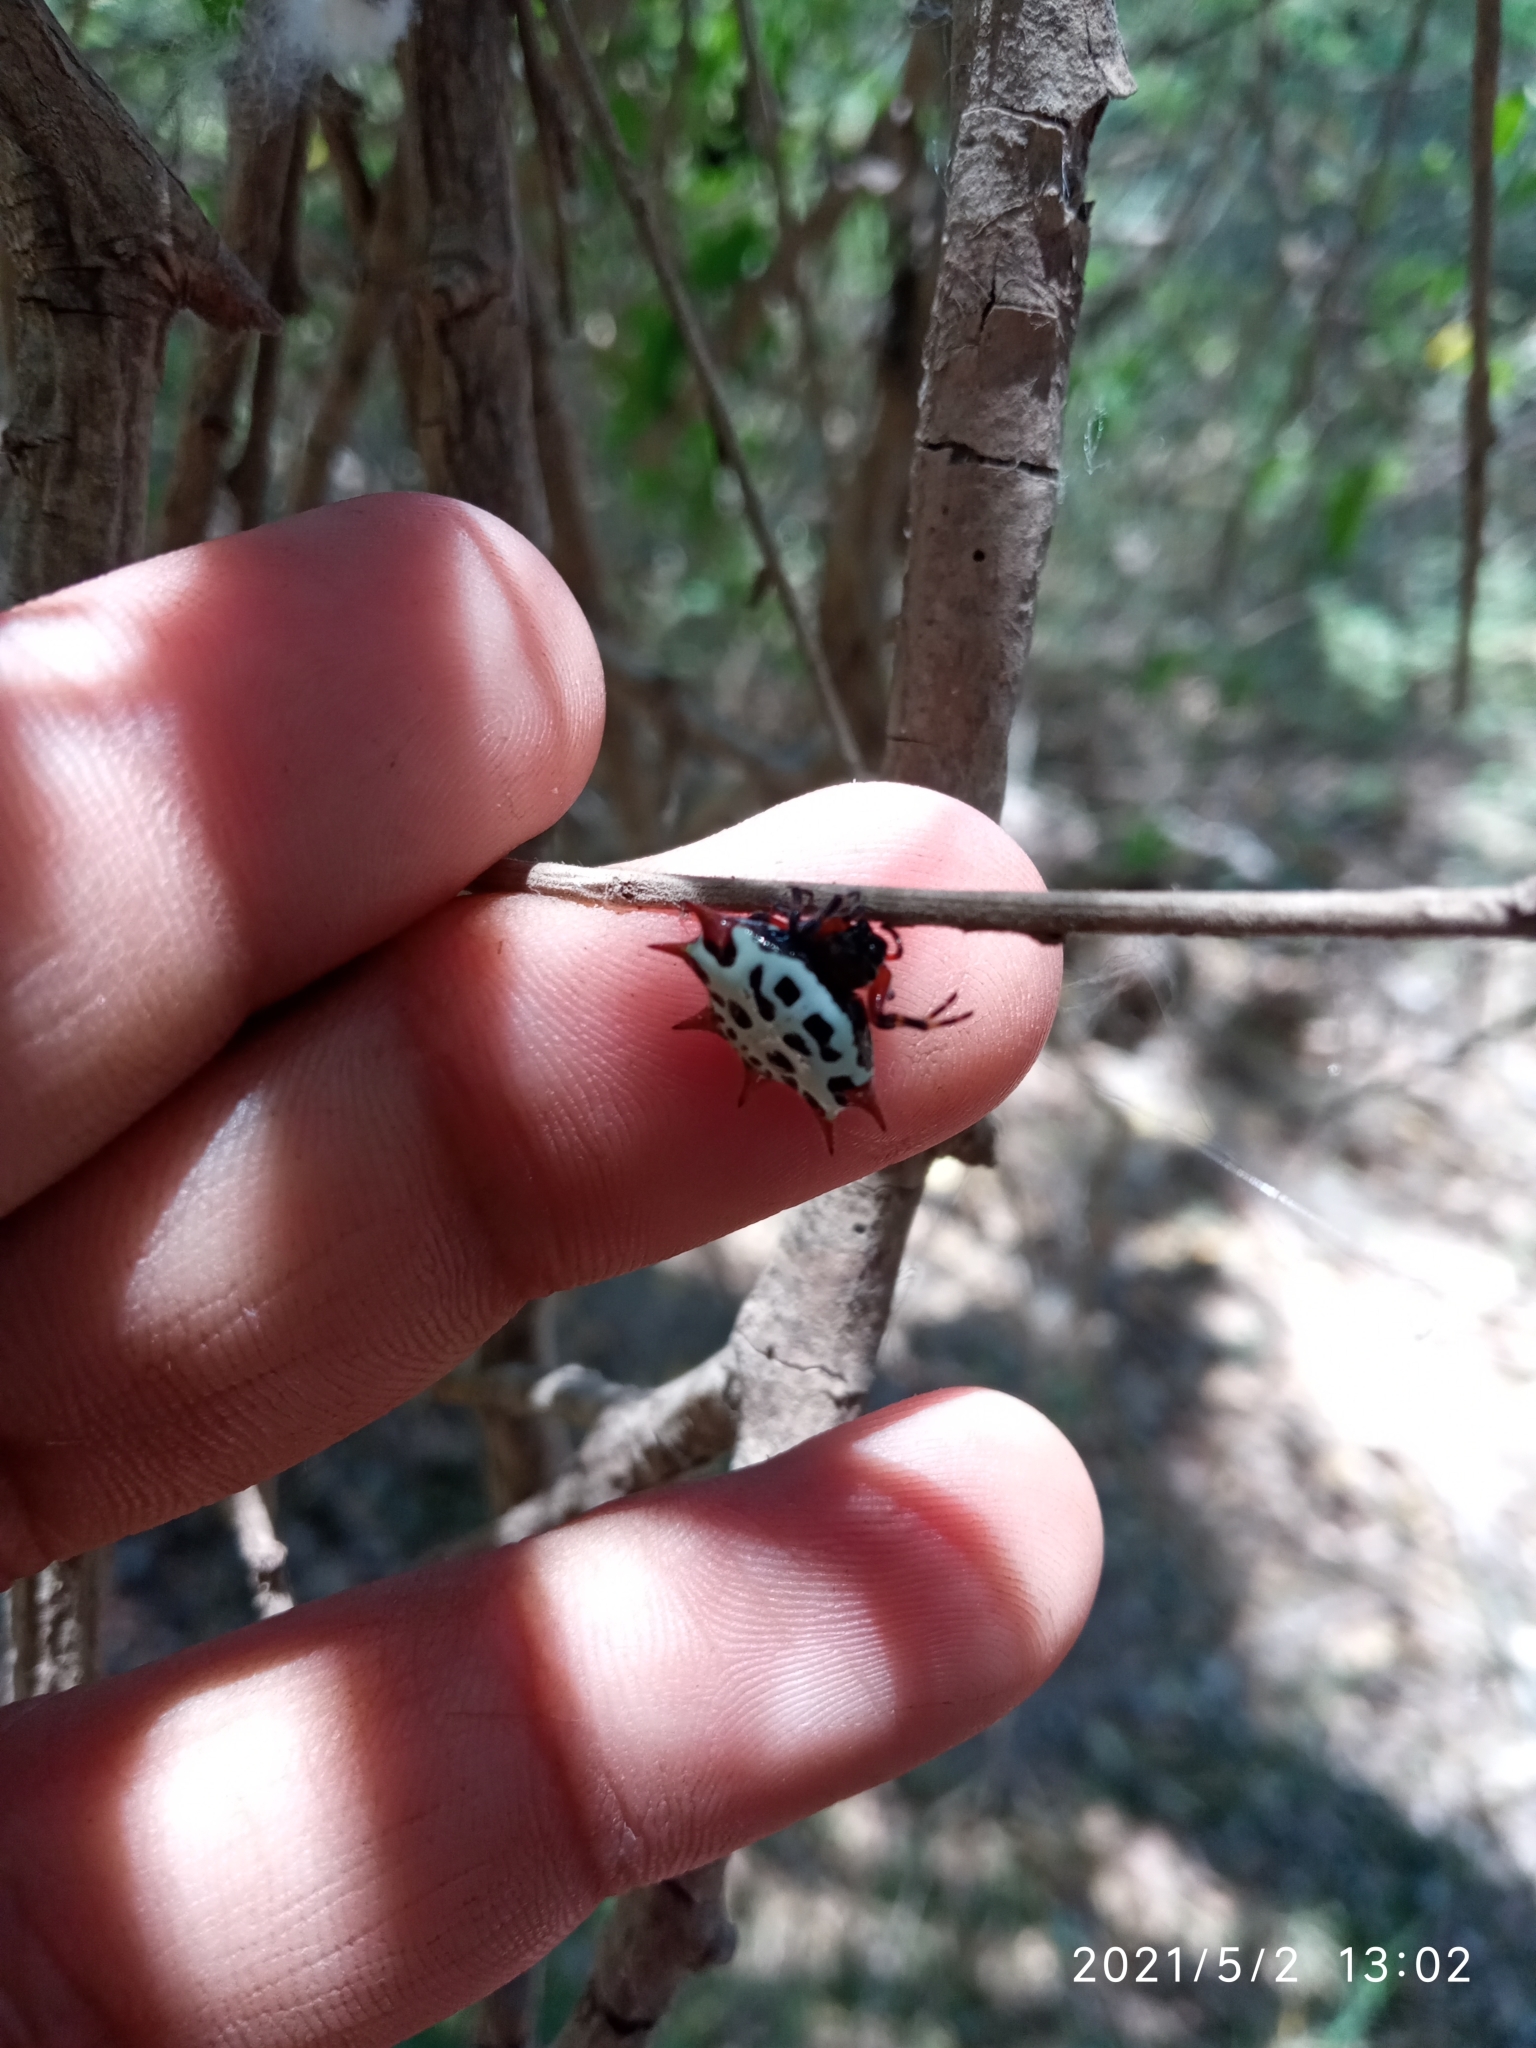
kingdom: Animalia
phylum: Arthropoda
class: Arachnida
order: Araneae
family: Araneidae
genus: Gasteracantha
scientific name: Gasteracantha cancriformis
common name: Orb weavers
